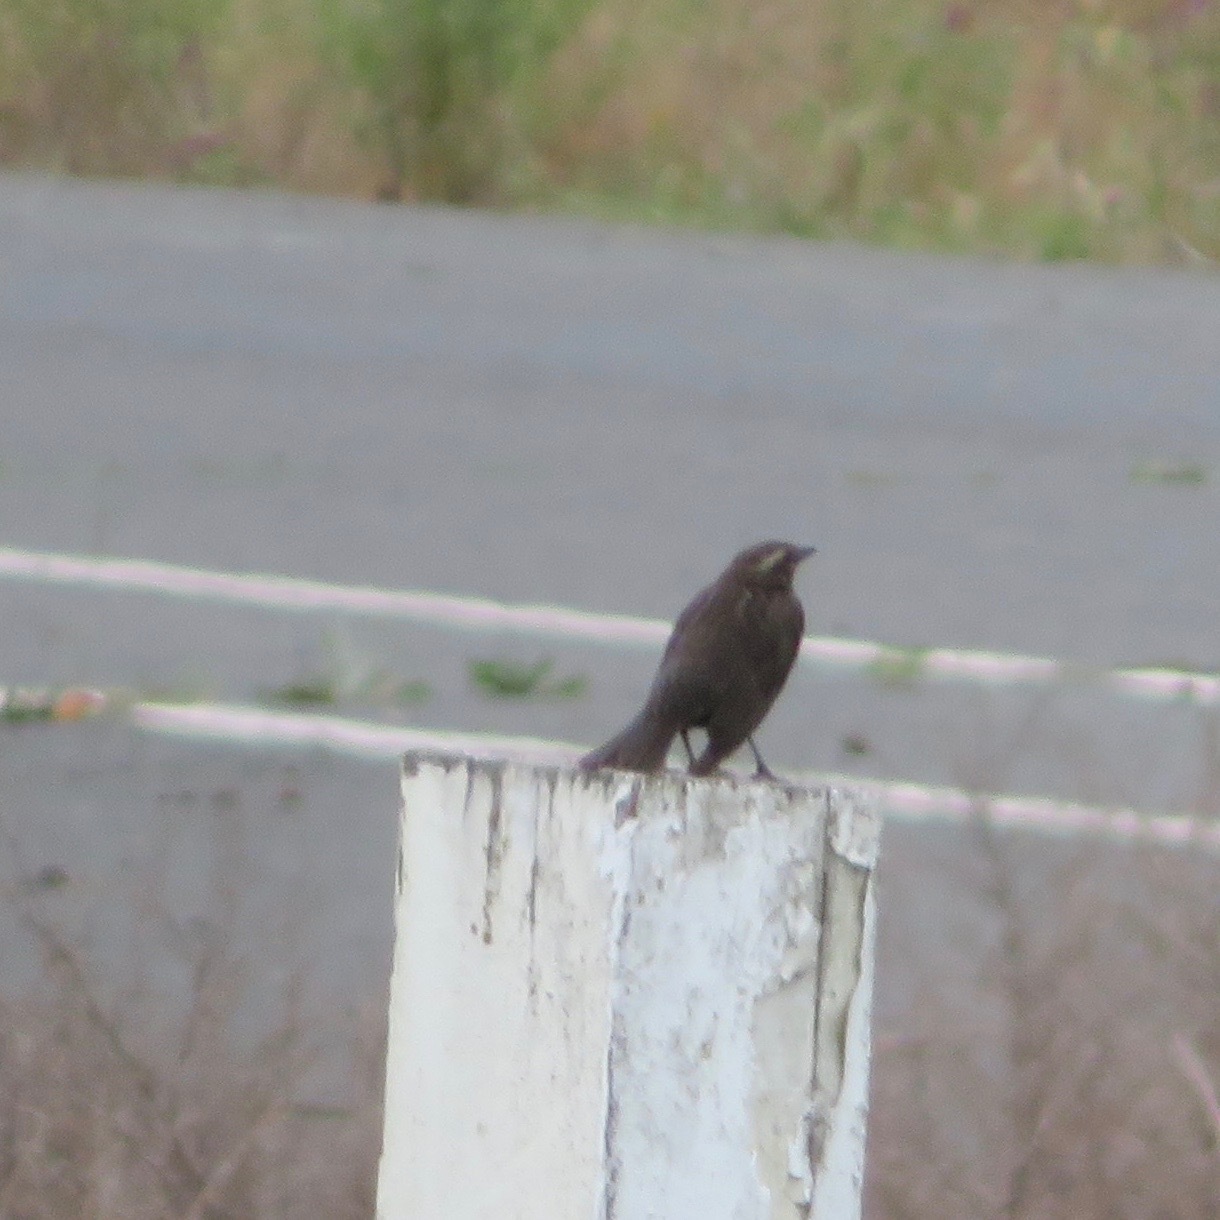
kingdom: Animalia
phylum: Chordata
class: Aves
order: Passeriformes
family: Icteridae
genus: Agelaius
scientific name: Agelaius phoeniceus
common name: Red-winged blackbird
